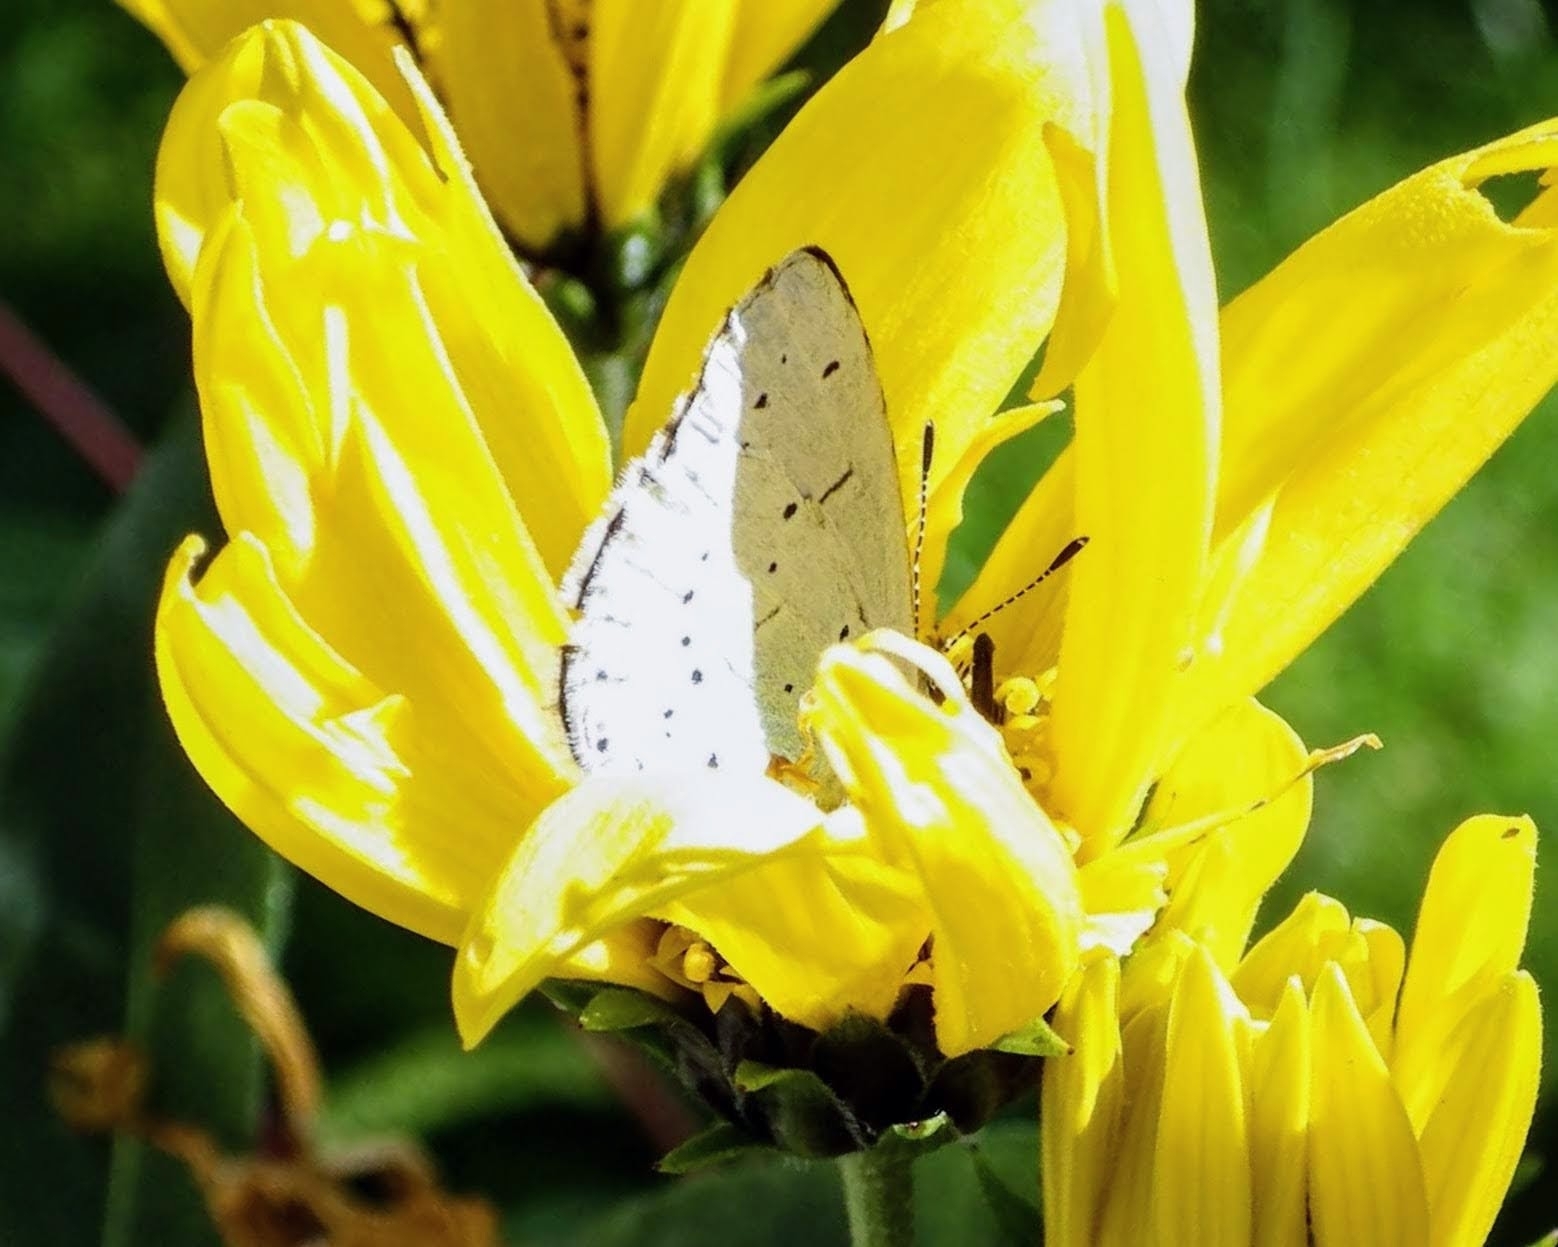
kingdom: Animalia
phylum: Arthropoda
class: Insecta
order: Lepidoptera
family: Lycaenidae
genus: Celastrina
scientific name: Celastrina argiolus
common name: Holly blue
